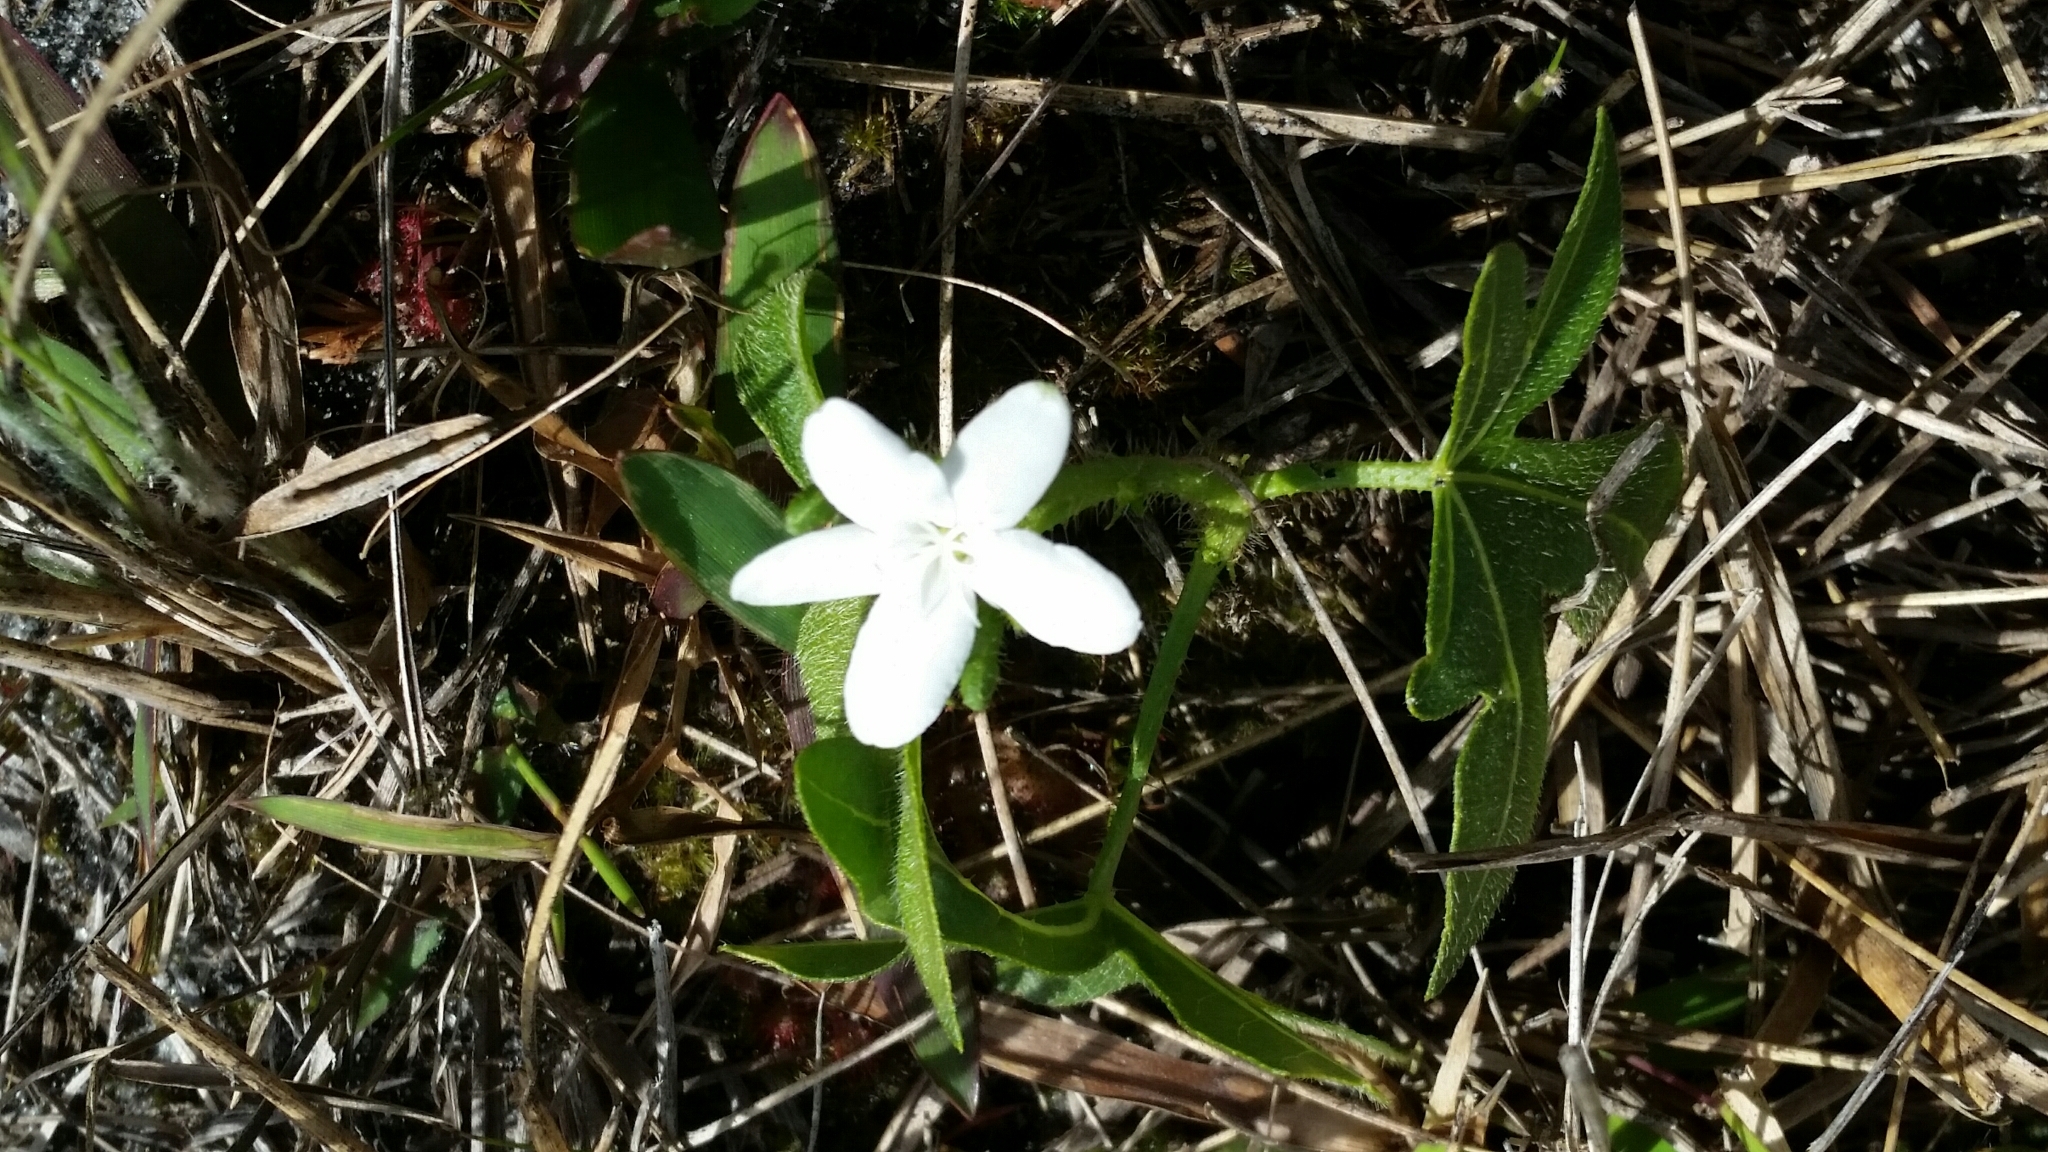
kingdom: Plantae
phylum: Tracheophyta
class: Magnoliopsida
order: Malpighiales
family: Euphorbiaceae
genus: Cnidoscolus
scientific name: Cnidoscolus stimulosus
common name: Bull-nettle
